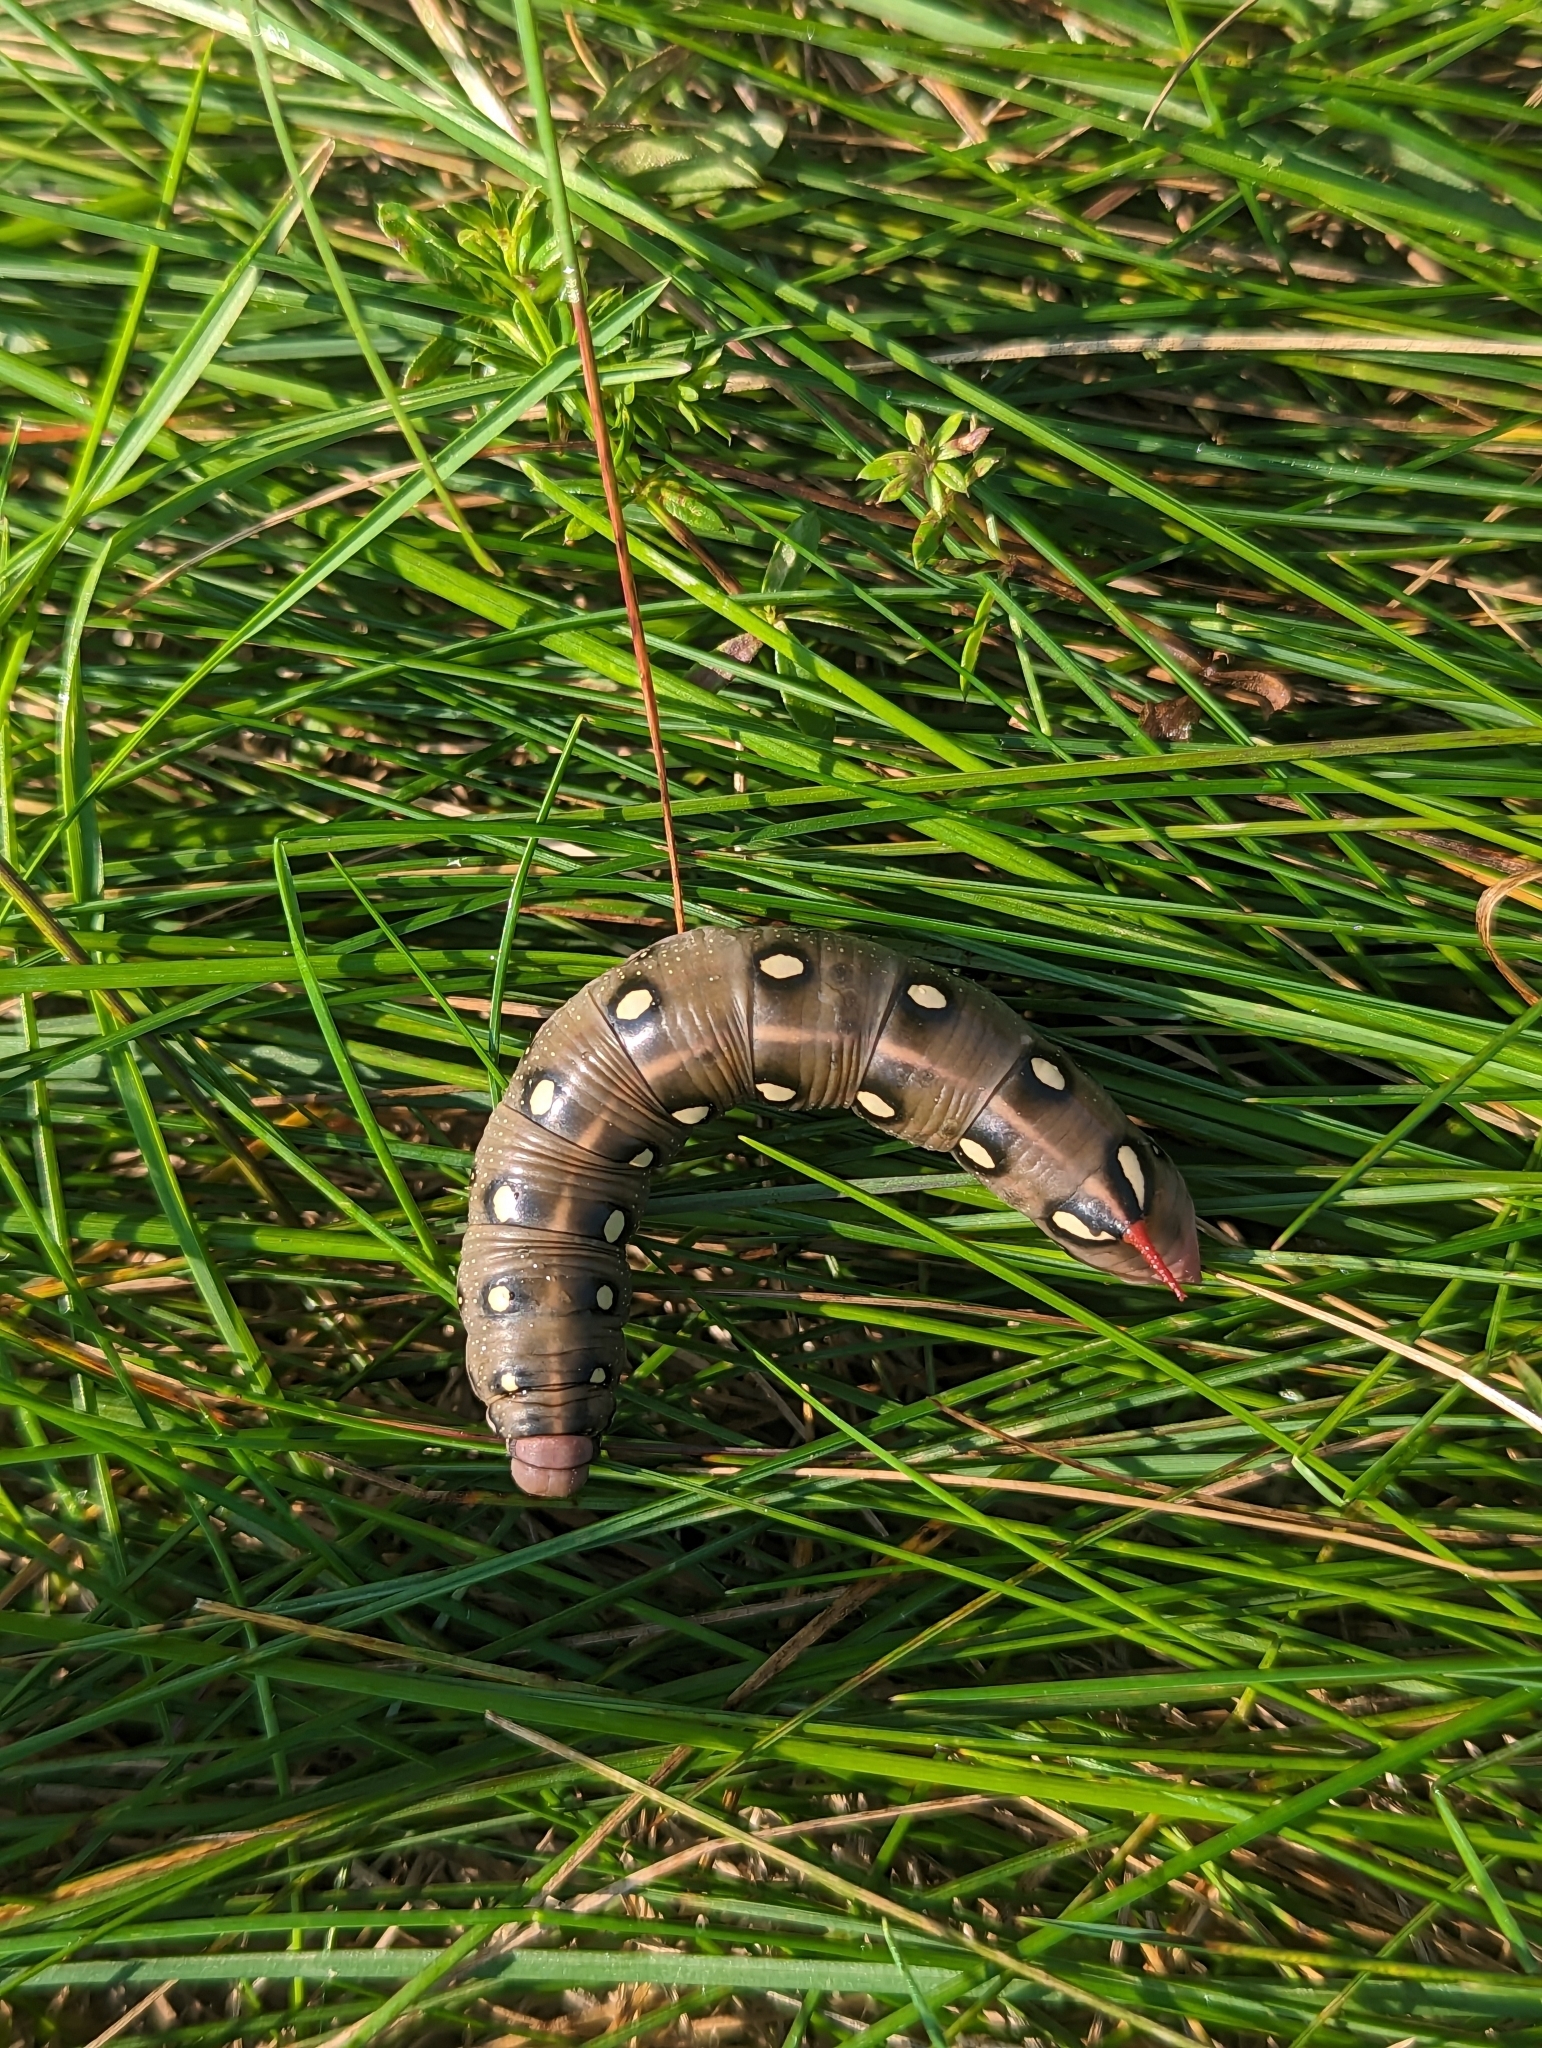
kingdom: Animalia
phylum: Arthropoda
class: Insecta
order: Lepidoptera
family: Sphingidae
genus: Hyles
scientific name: Hyles gallii
